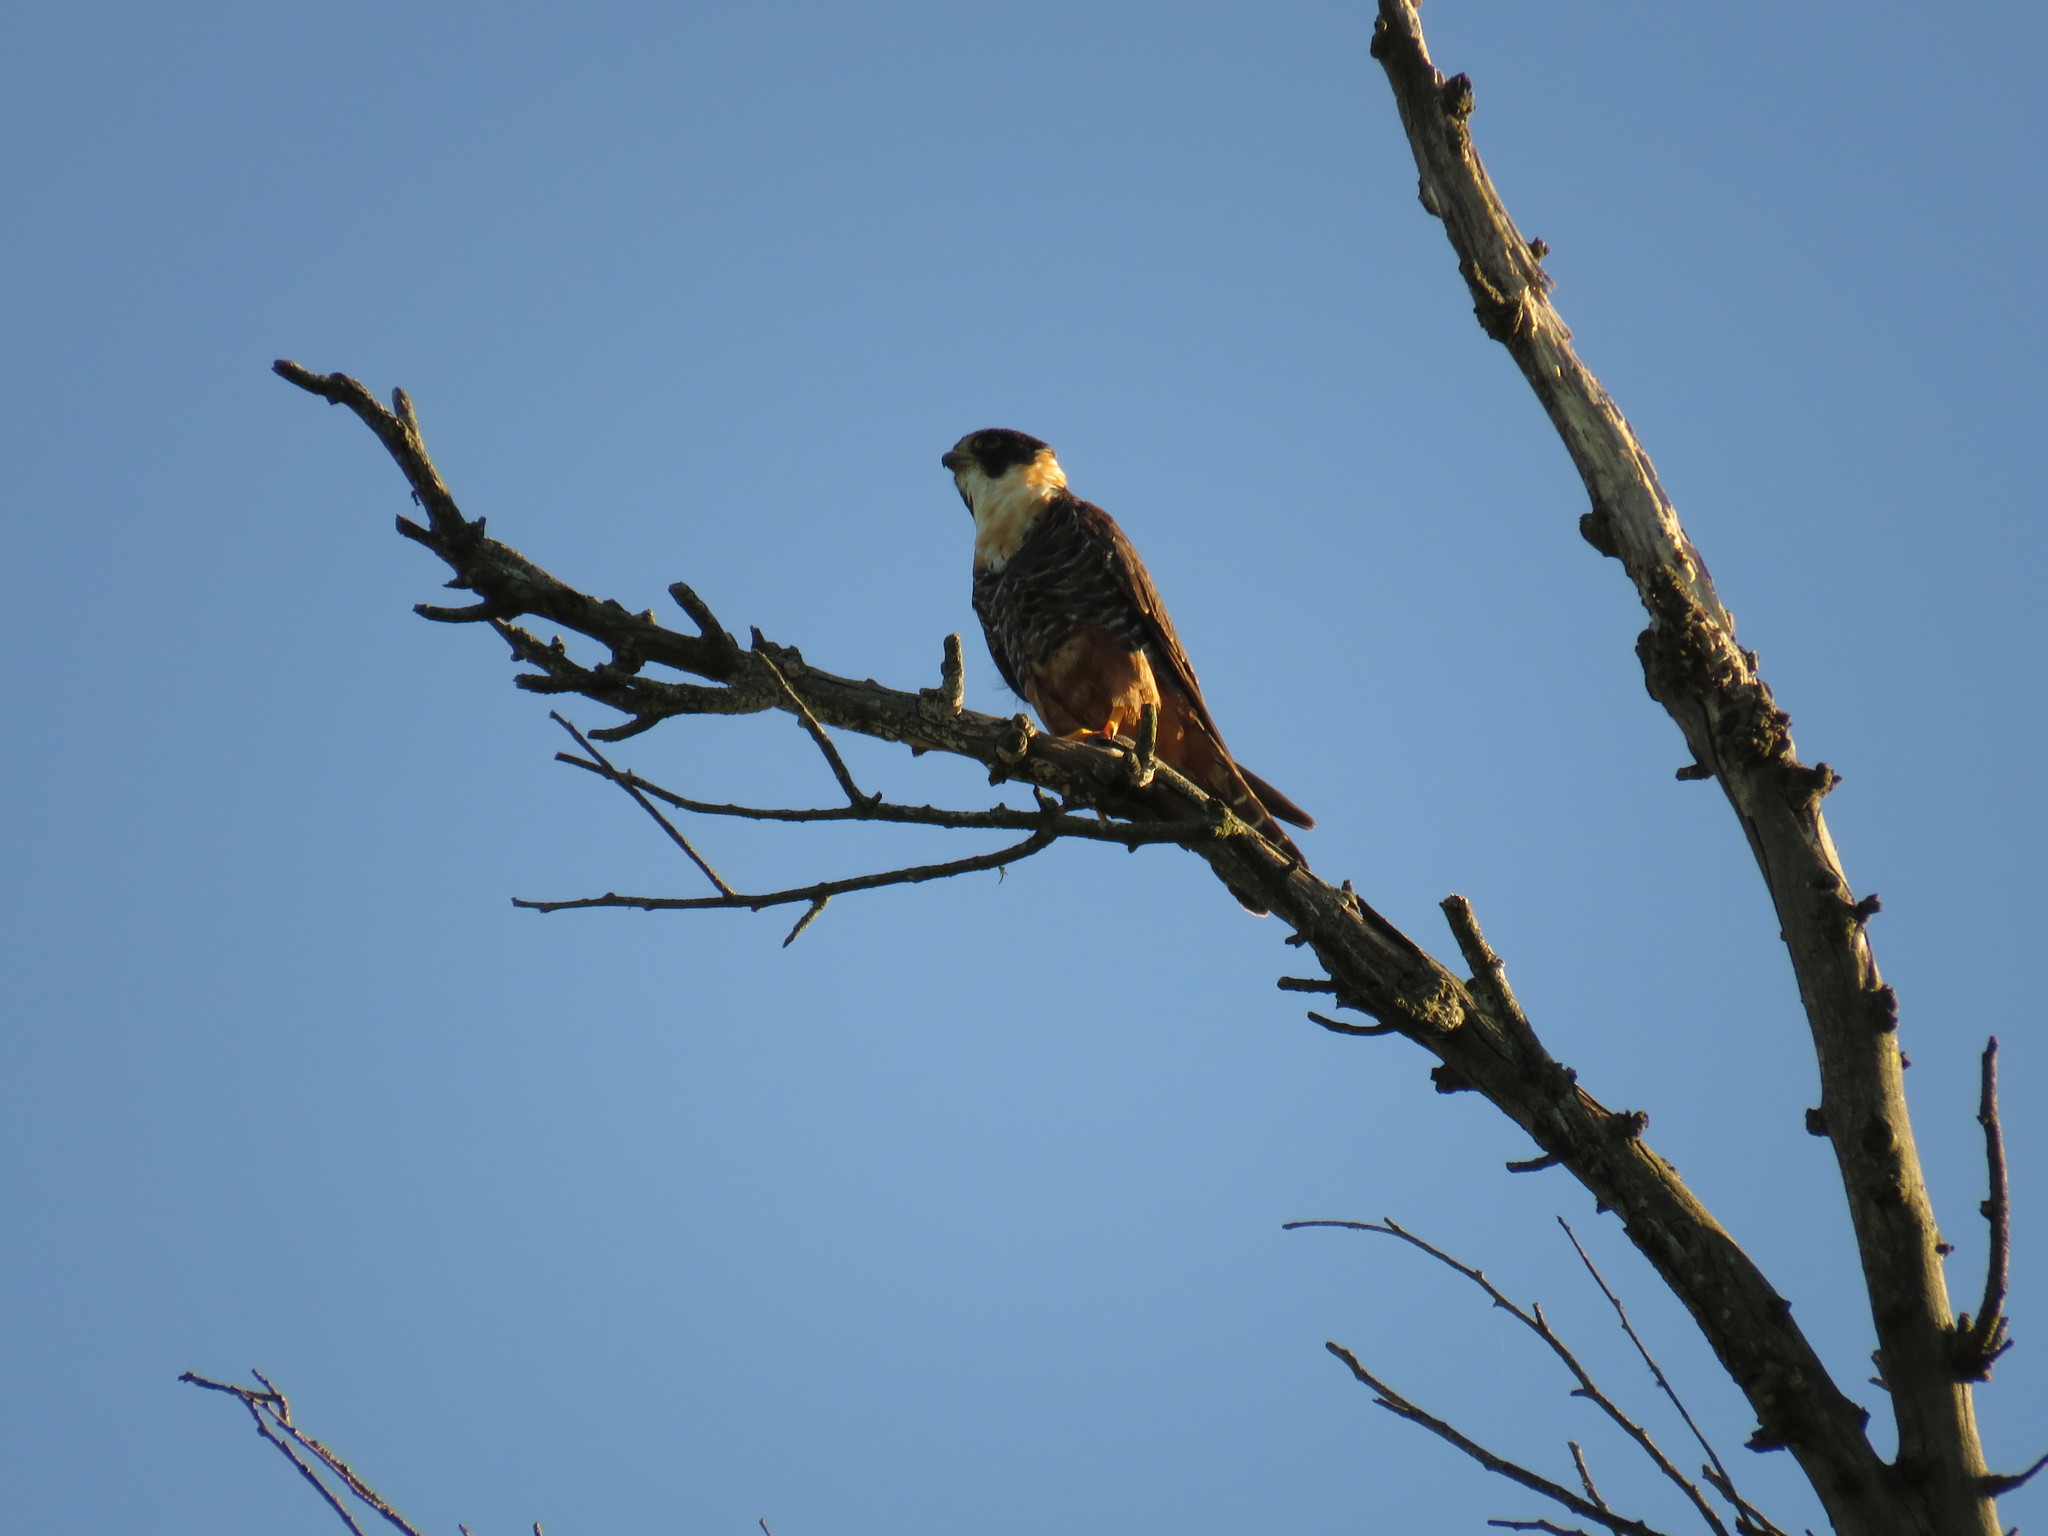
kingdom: Animalia
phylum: Chordata
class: Aves
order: Falconiformes
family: Falconidae
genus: Falco
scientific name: Falco rufigularis
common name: Bat falcon
